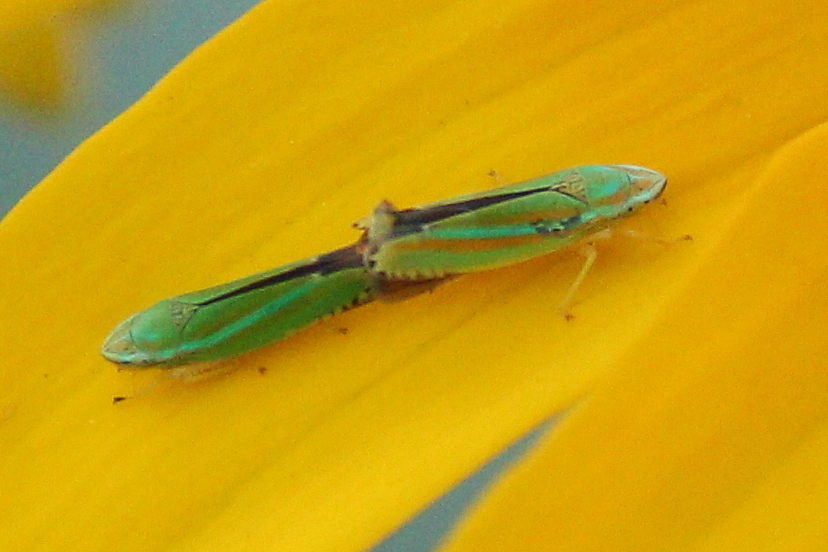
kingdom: Animalia
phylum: Arthropoda
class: Insecta
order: Hemiptera
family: Cicadellidae
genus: Graphocephala
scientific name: Graphocephala versuta
